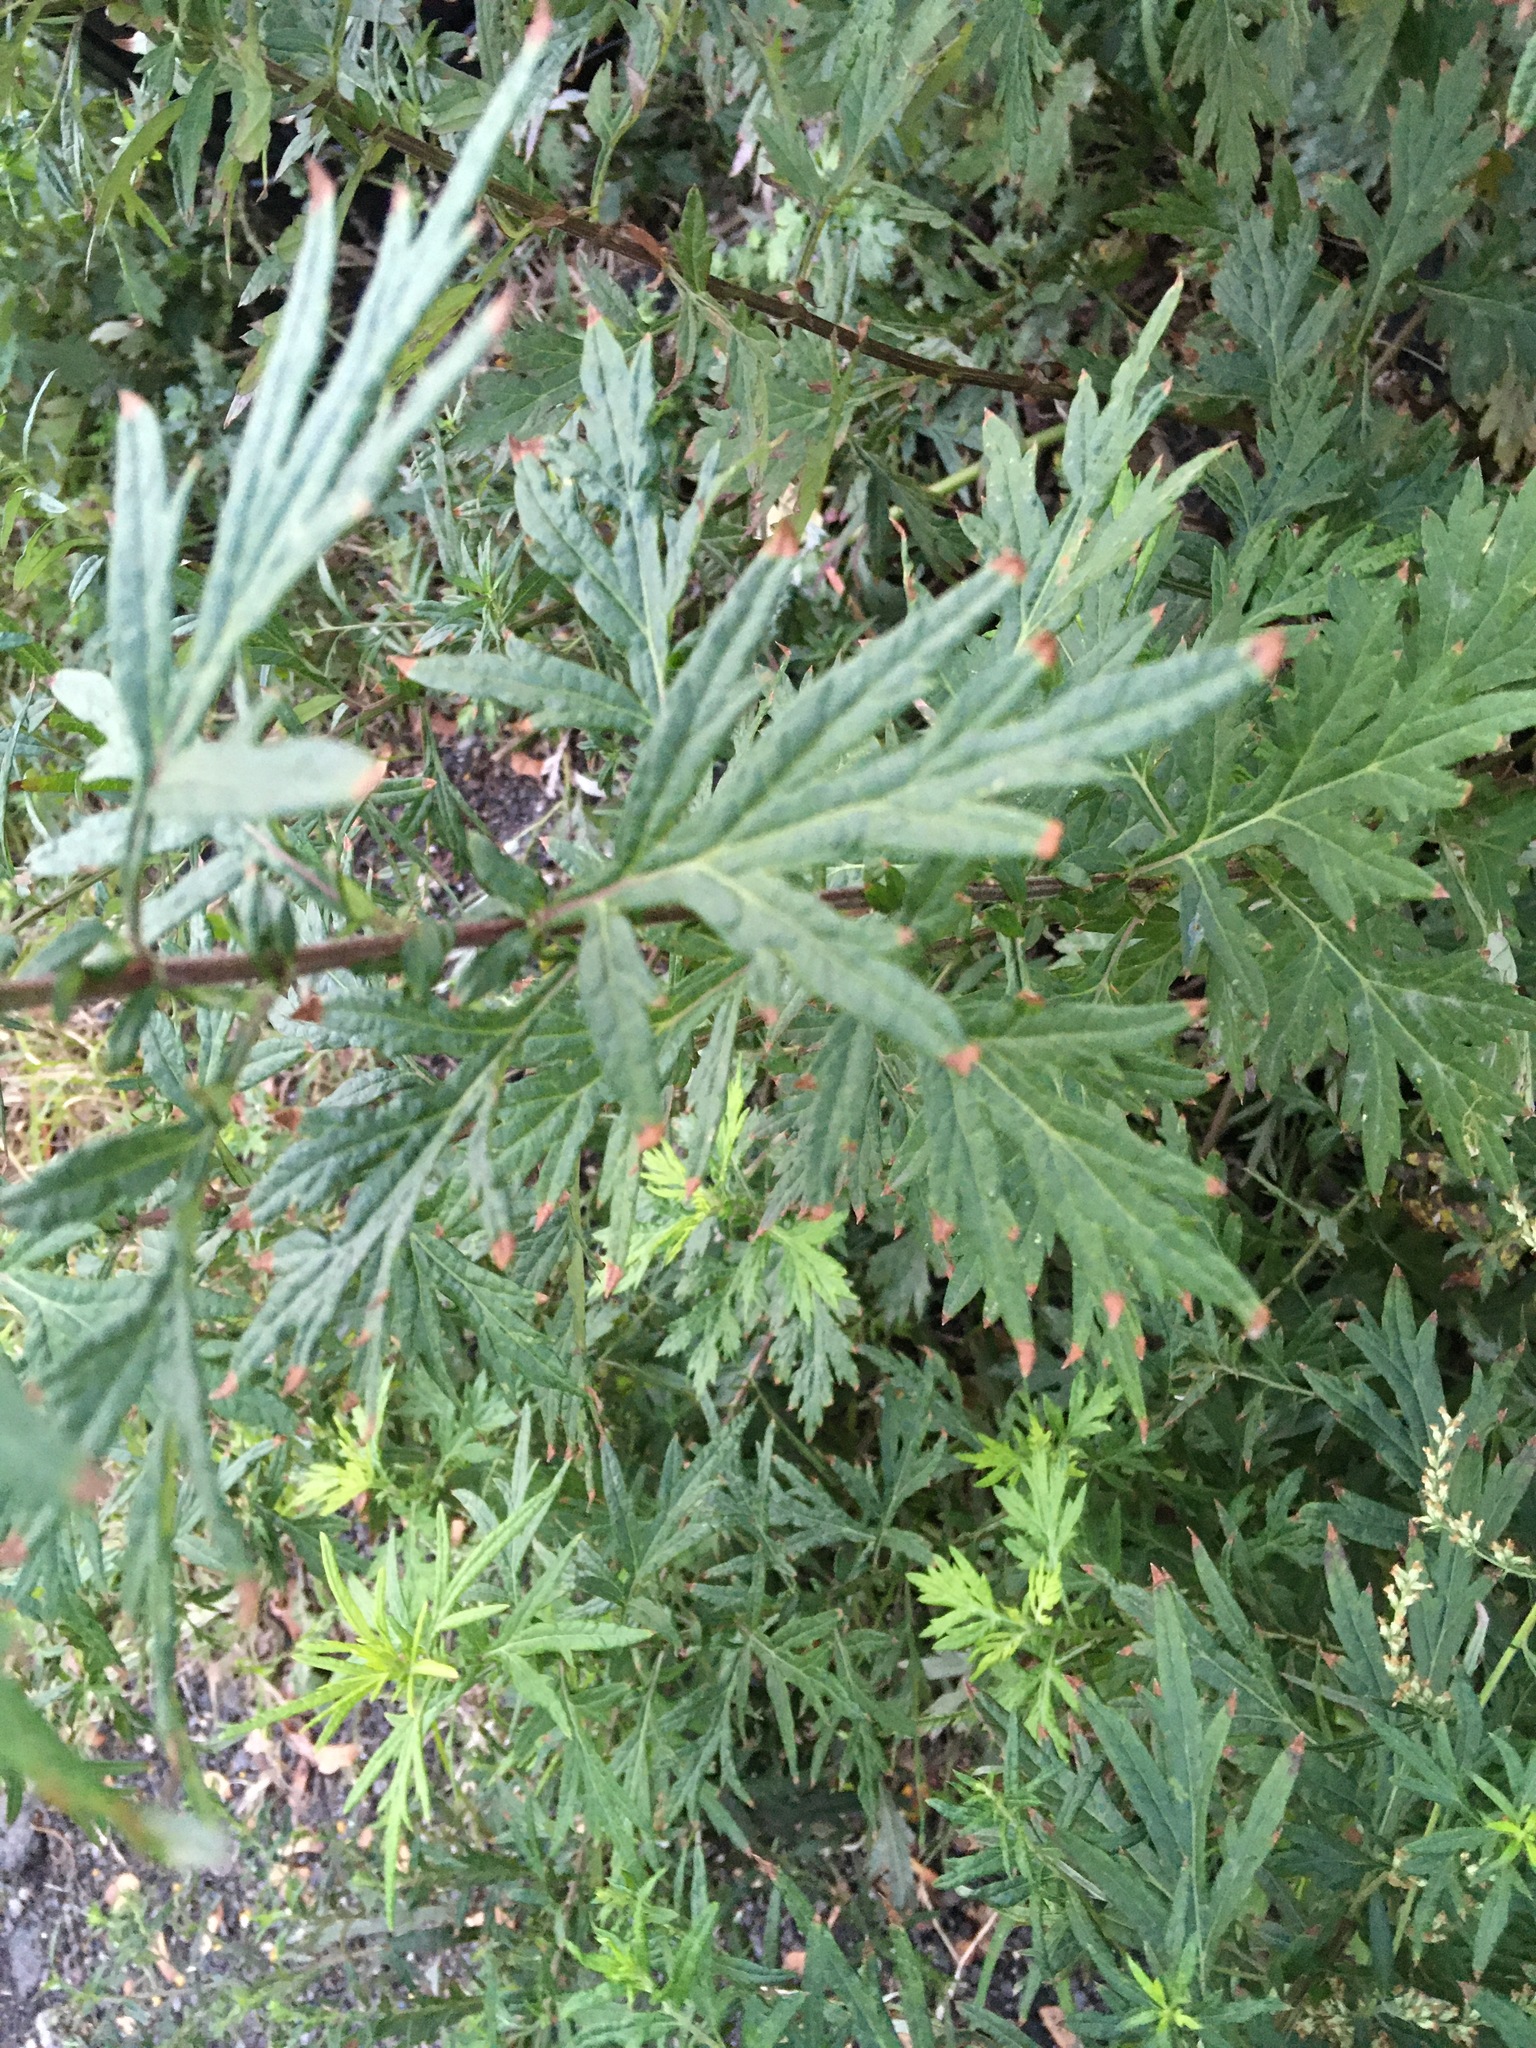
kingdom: Plantae
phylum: Tracheophyta
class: Magnoliopsida
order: Asterales
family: Asteraceae
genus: Artemisia
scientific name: Artemisia vulgaris
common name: Mugwort
